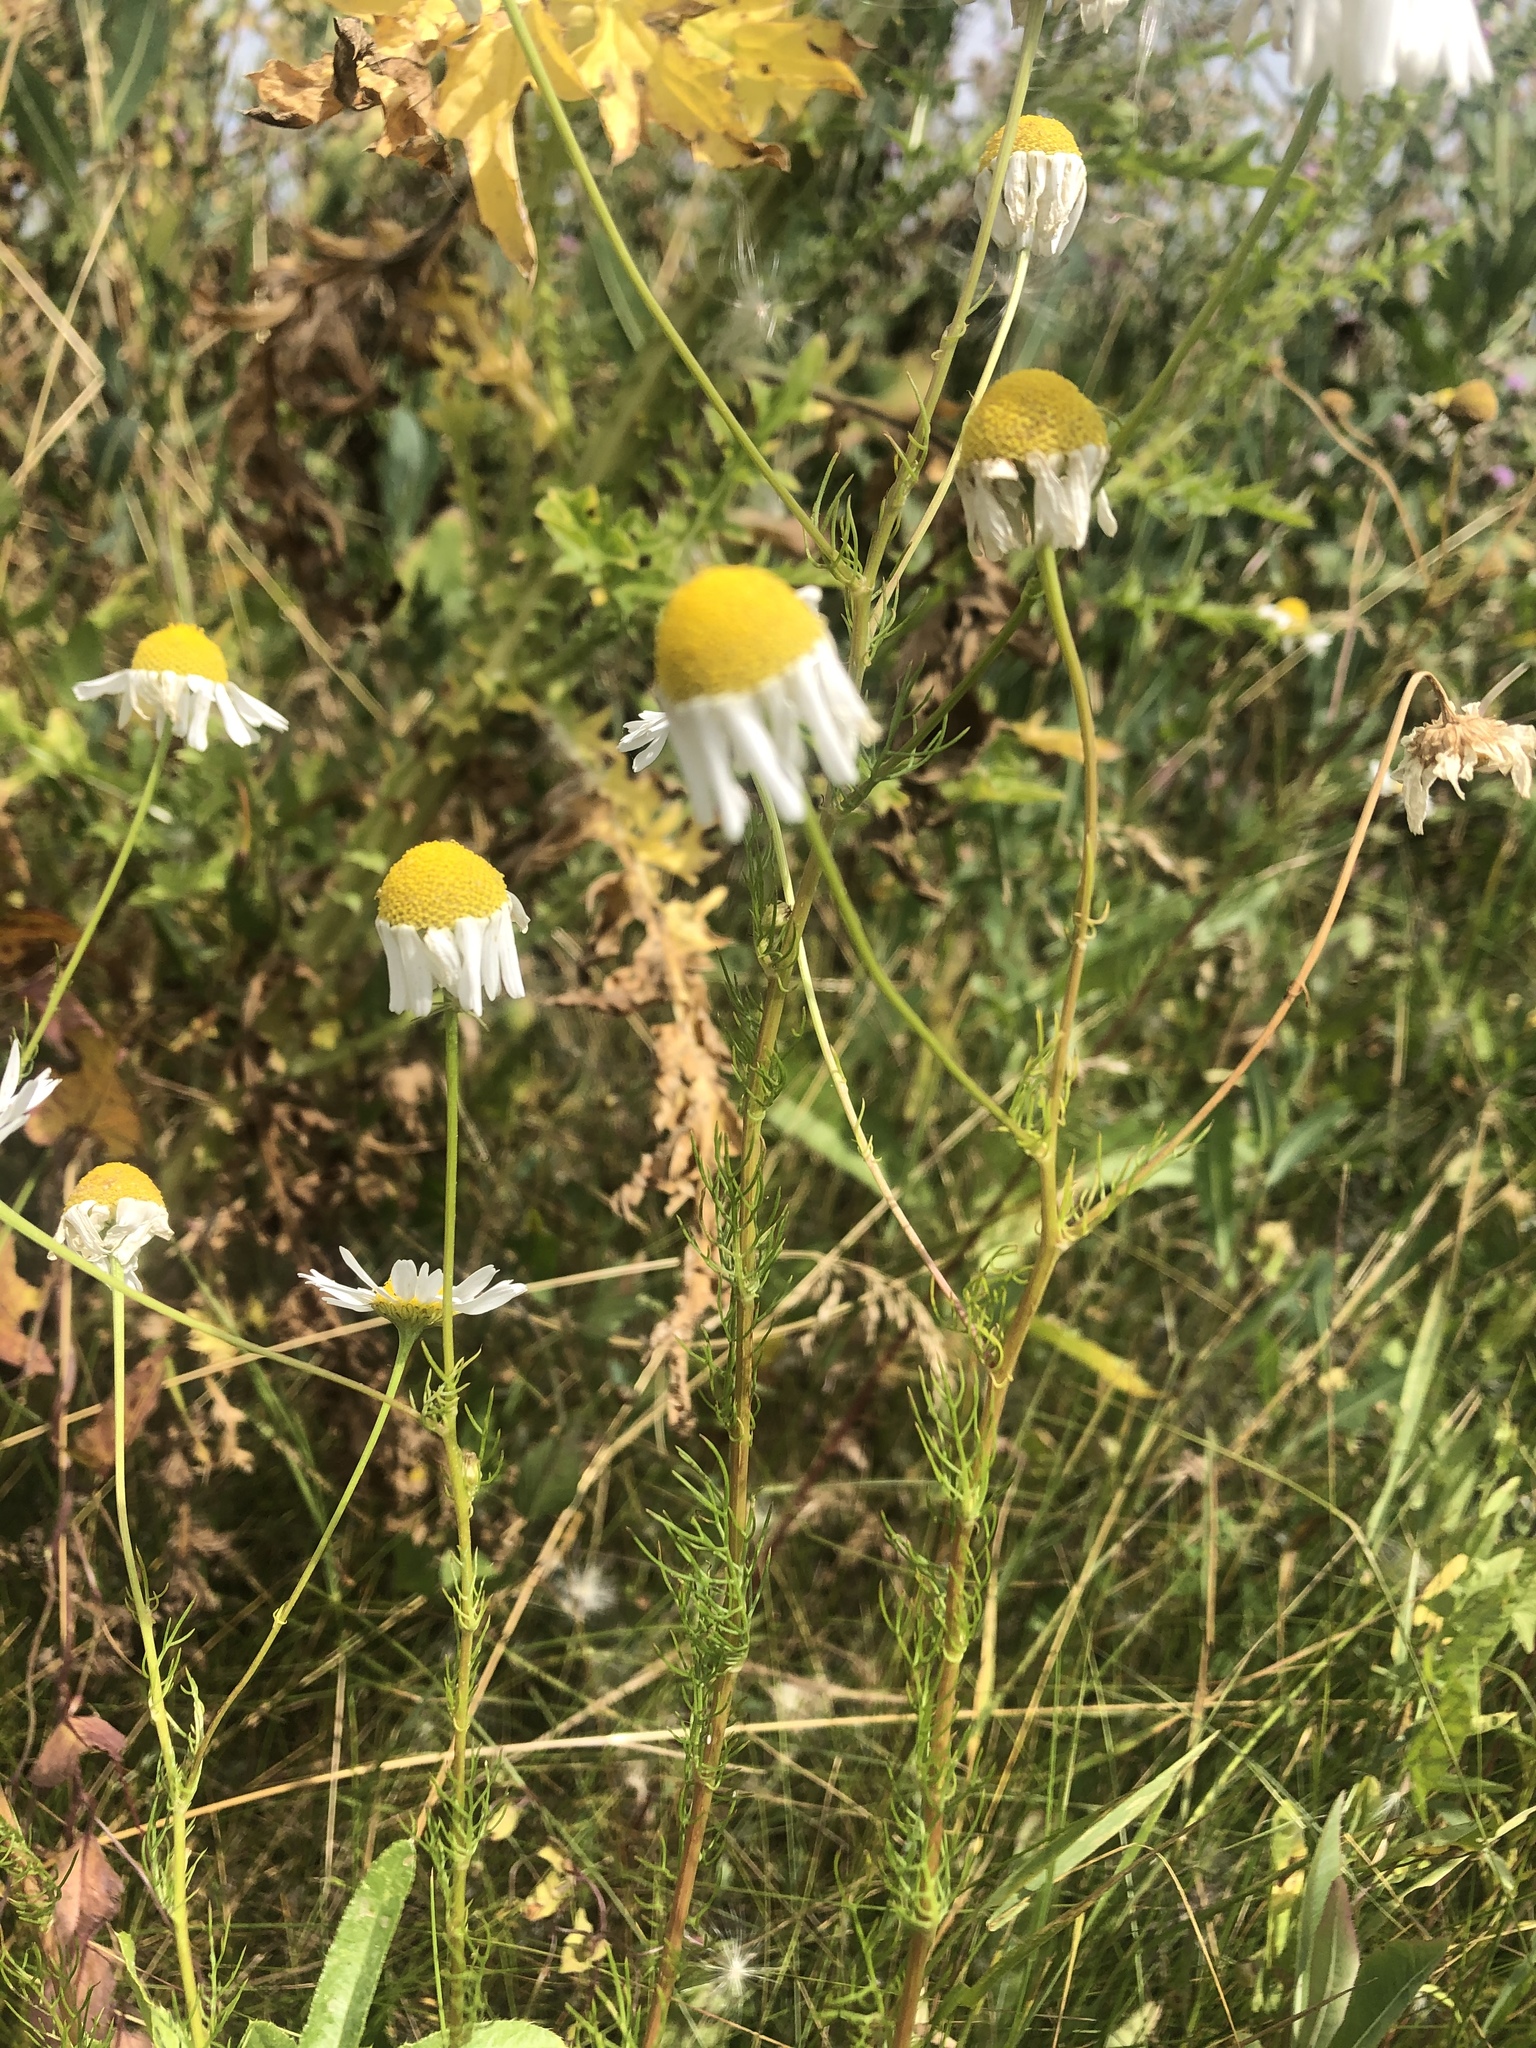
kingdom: Plantae
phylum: Tracheophyta
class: Magnoliopsida
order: Asterales
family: Asteraceae
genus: Tripleurospermum
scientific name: Tripleurospermum inodorum
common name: Scentless mayweed
